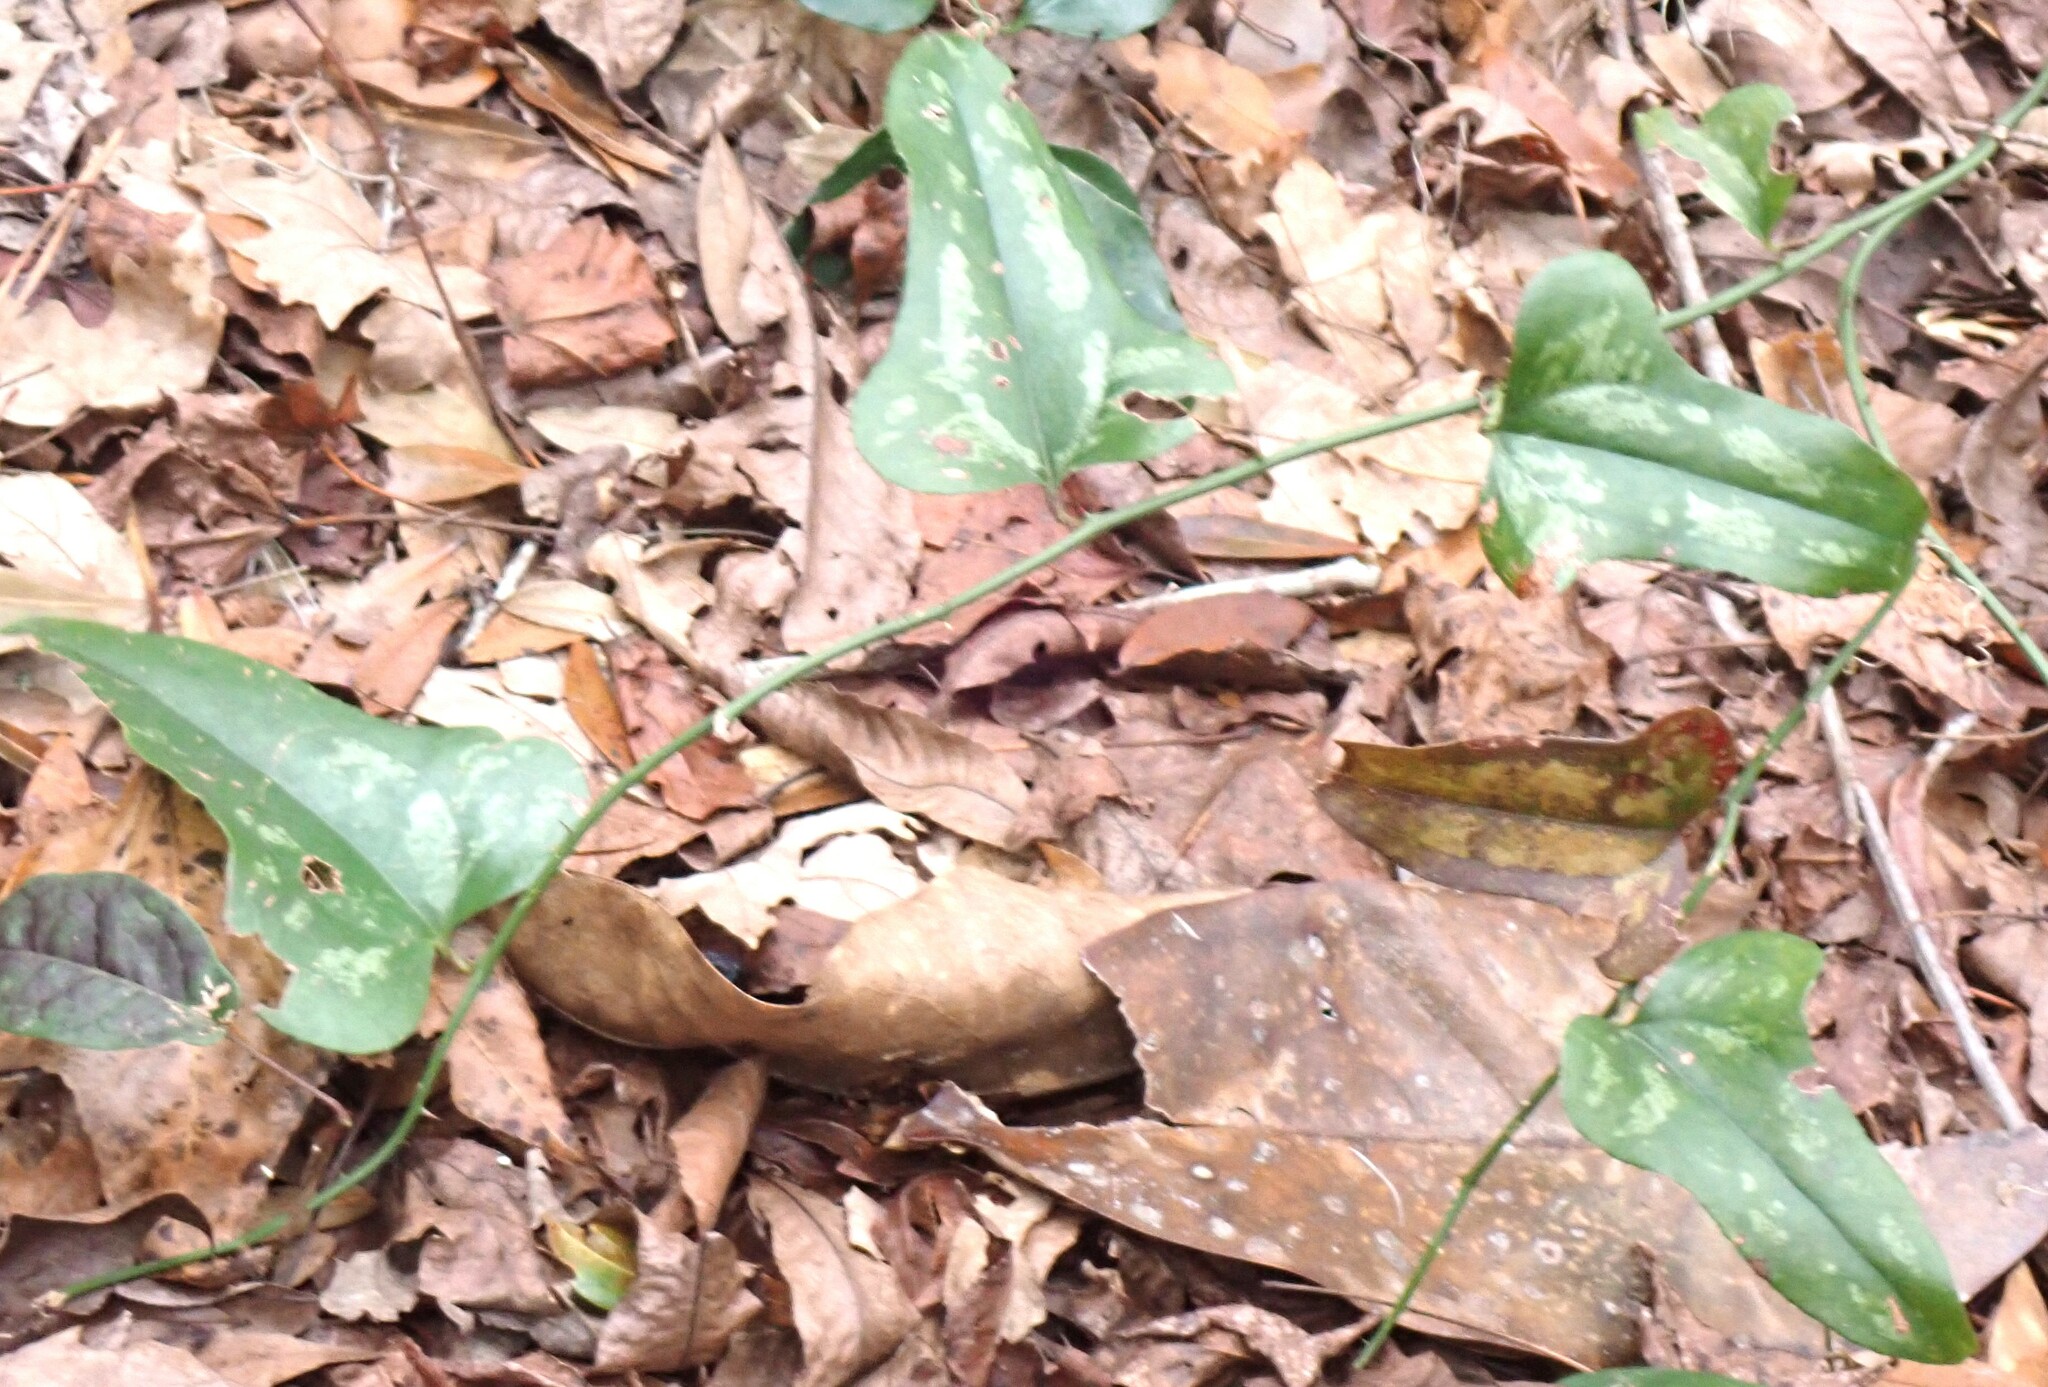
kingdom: Plantae
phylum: Tracheophyta
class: Liliopsida
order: Liliales
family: Smilacaceae
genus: Smilax
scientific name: Smilax bona-nox
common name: Catbrier
